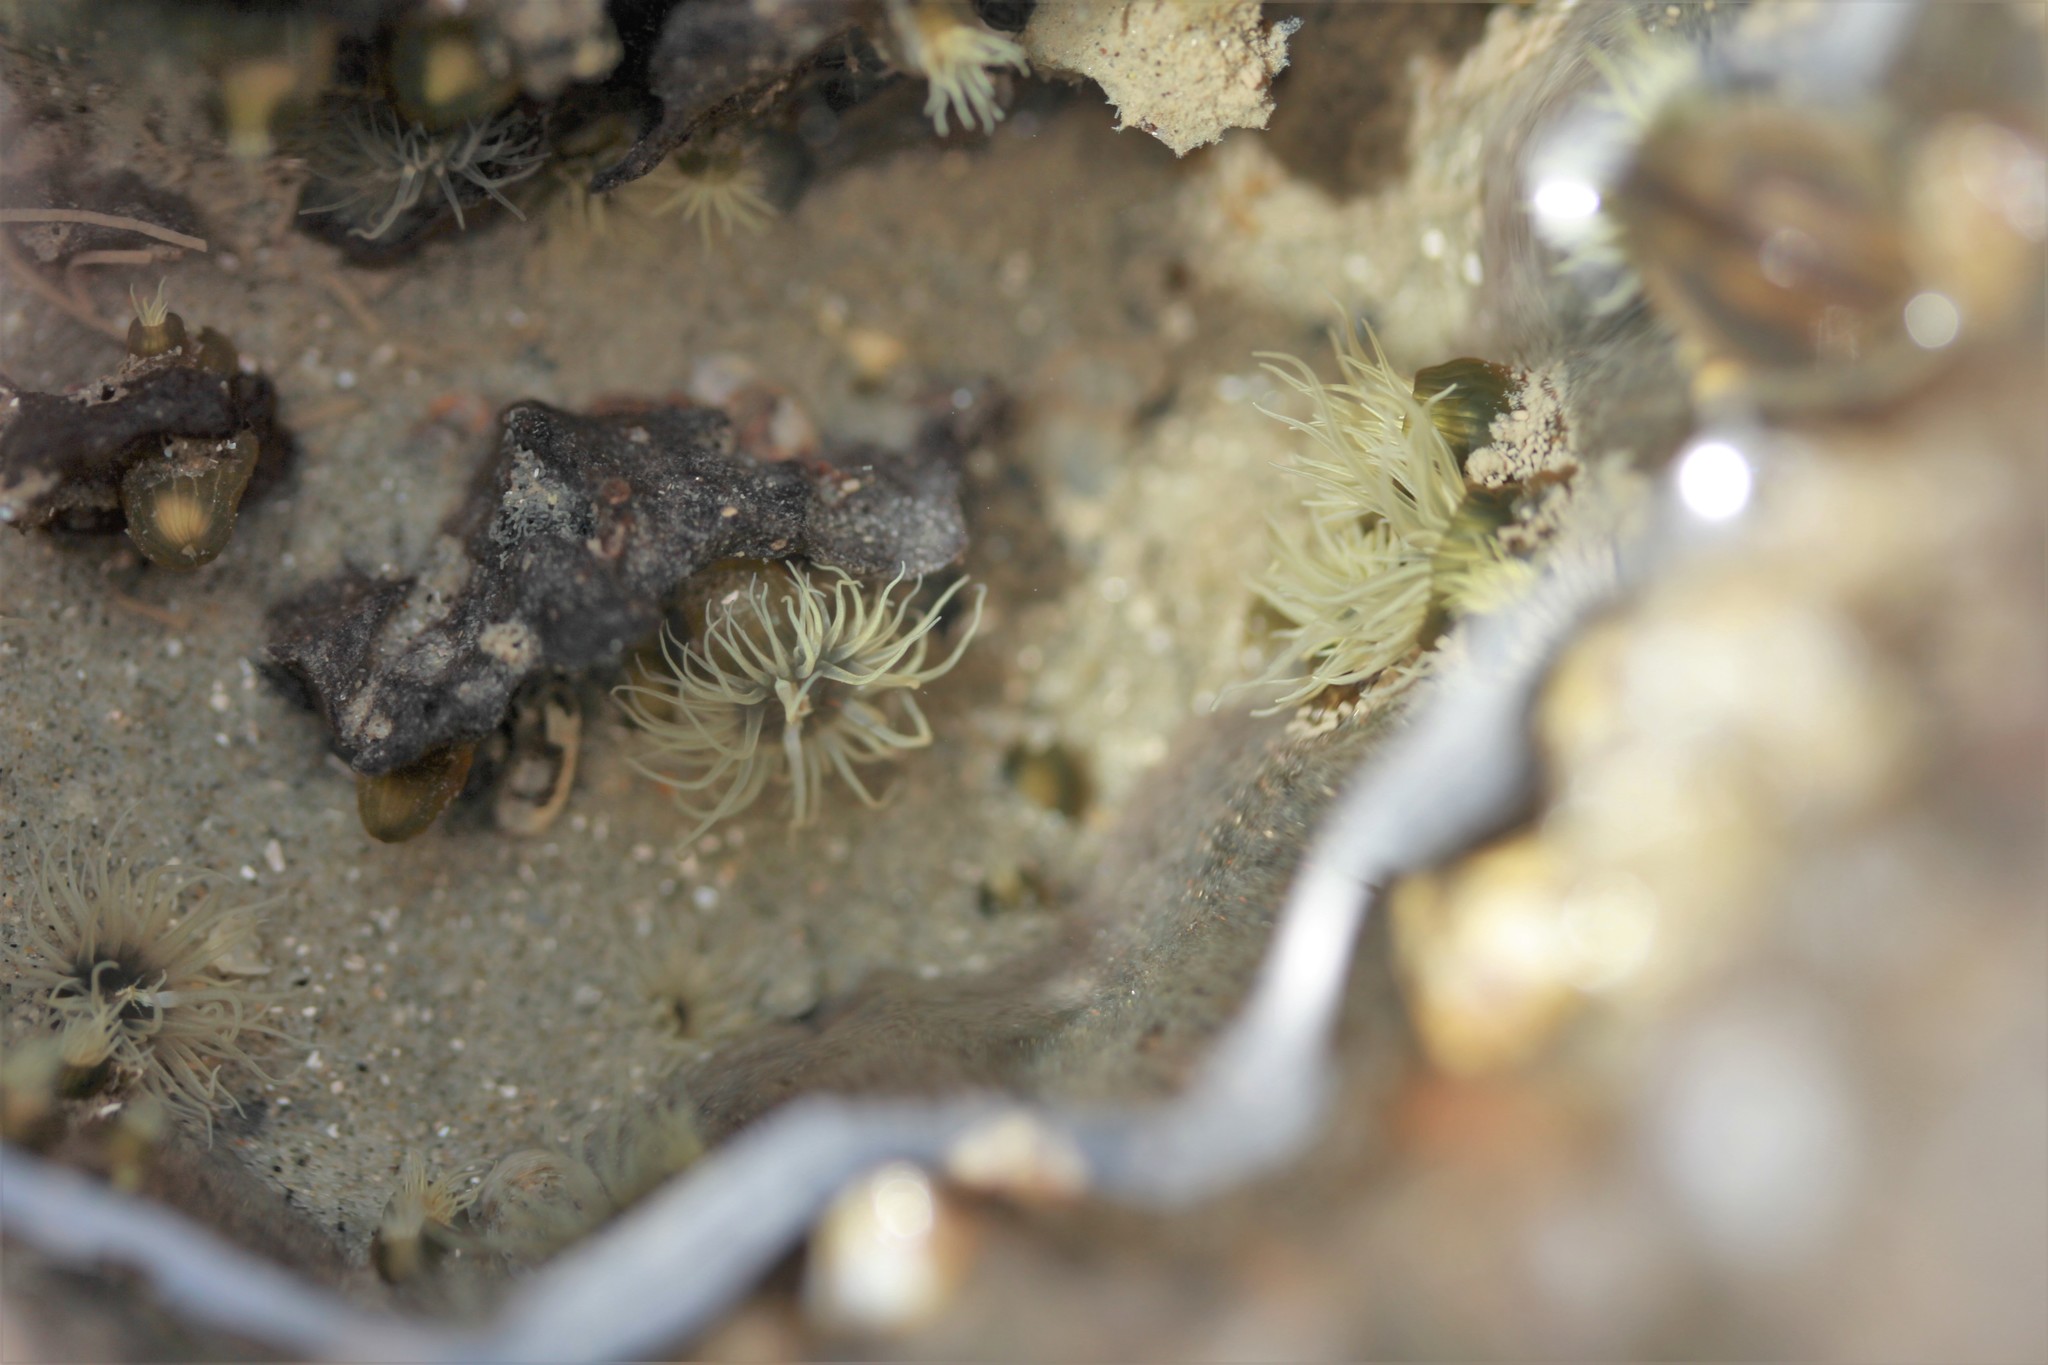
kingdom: Animalia
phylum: Cnidaria
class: Anthozoa
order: Actiniaria
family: Diadumenidae
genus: Diadumene
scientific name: Diadumene lineata
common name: Orange-striped anemone
